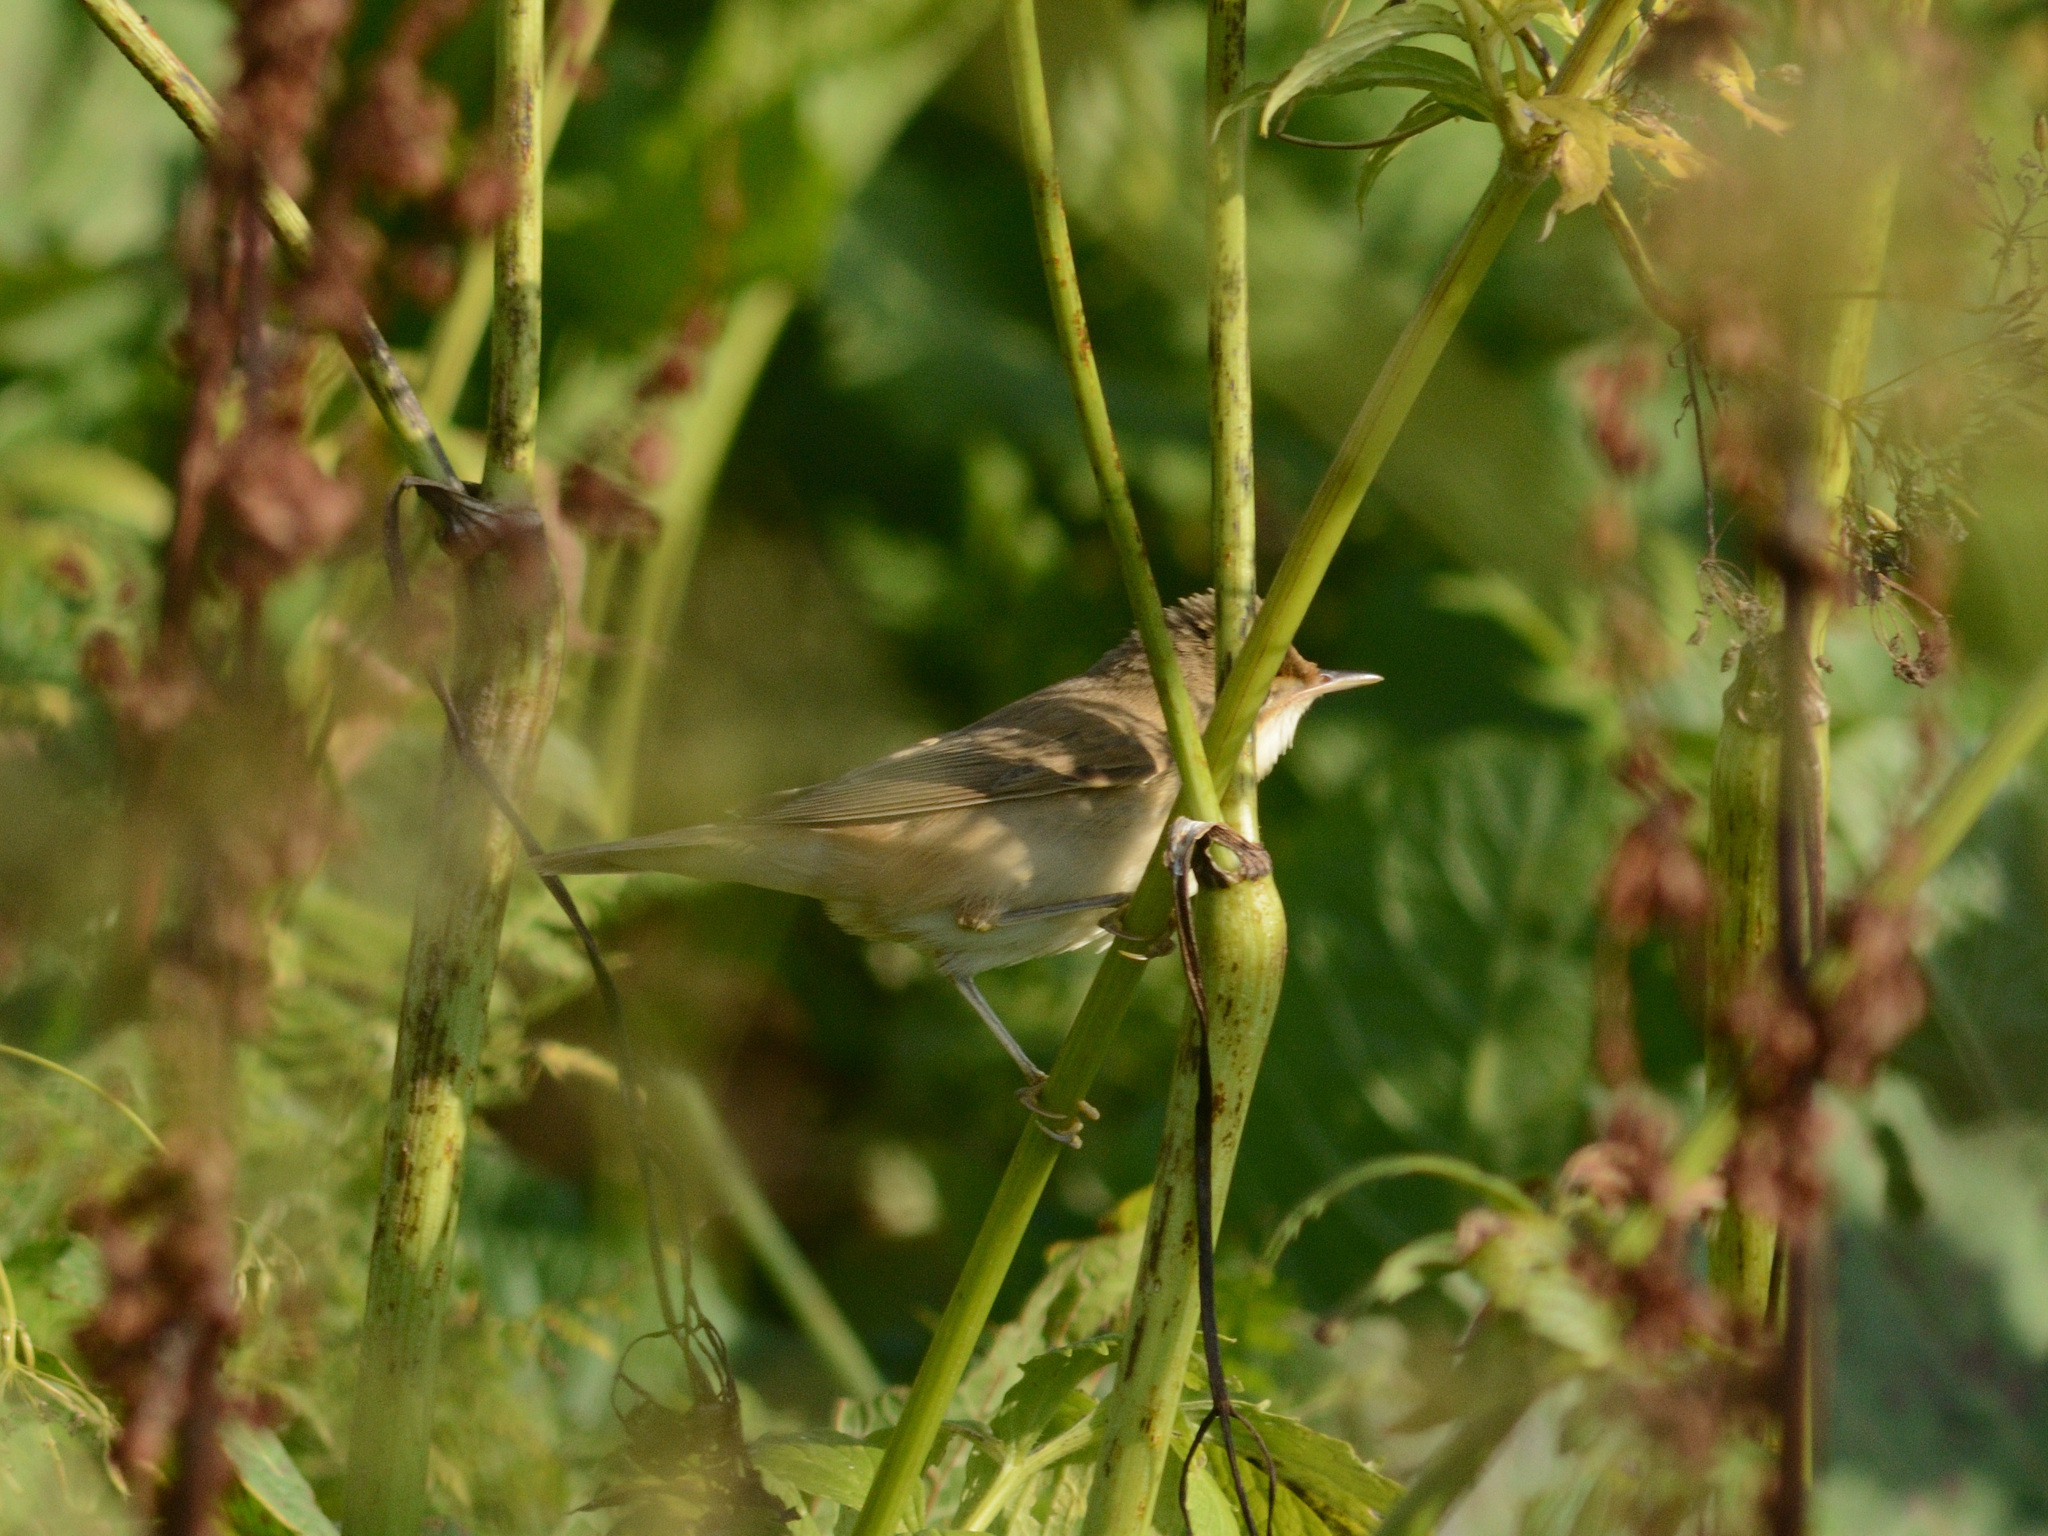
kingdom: Animalia
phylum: Chordata
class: Aves
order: Passeriformes
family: Acrocephalidae
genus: Acrocephalus
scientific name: Acrocephalus palustris
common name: Marsh warbler
